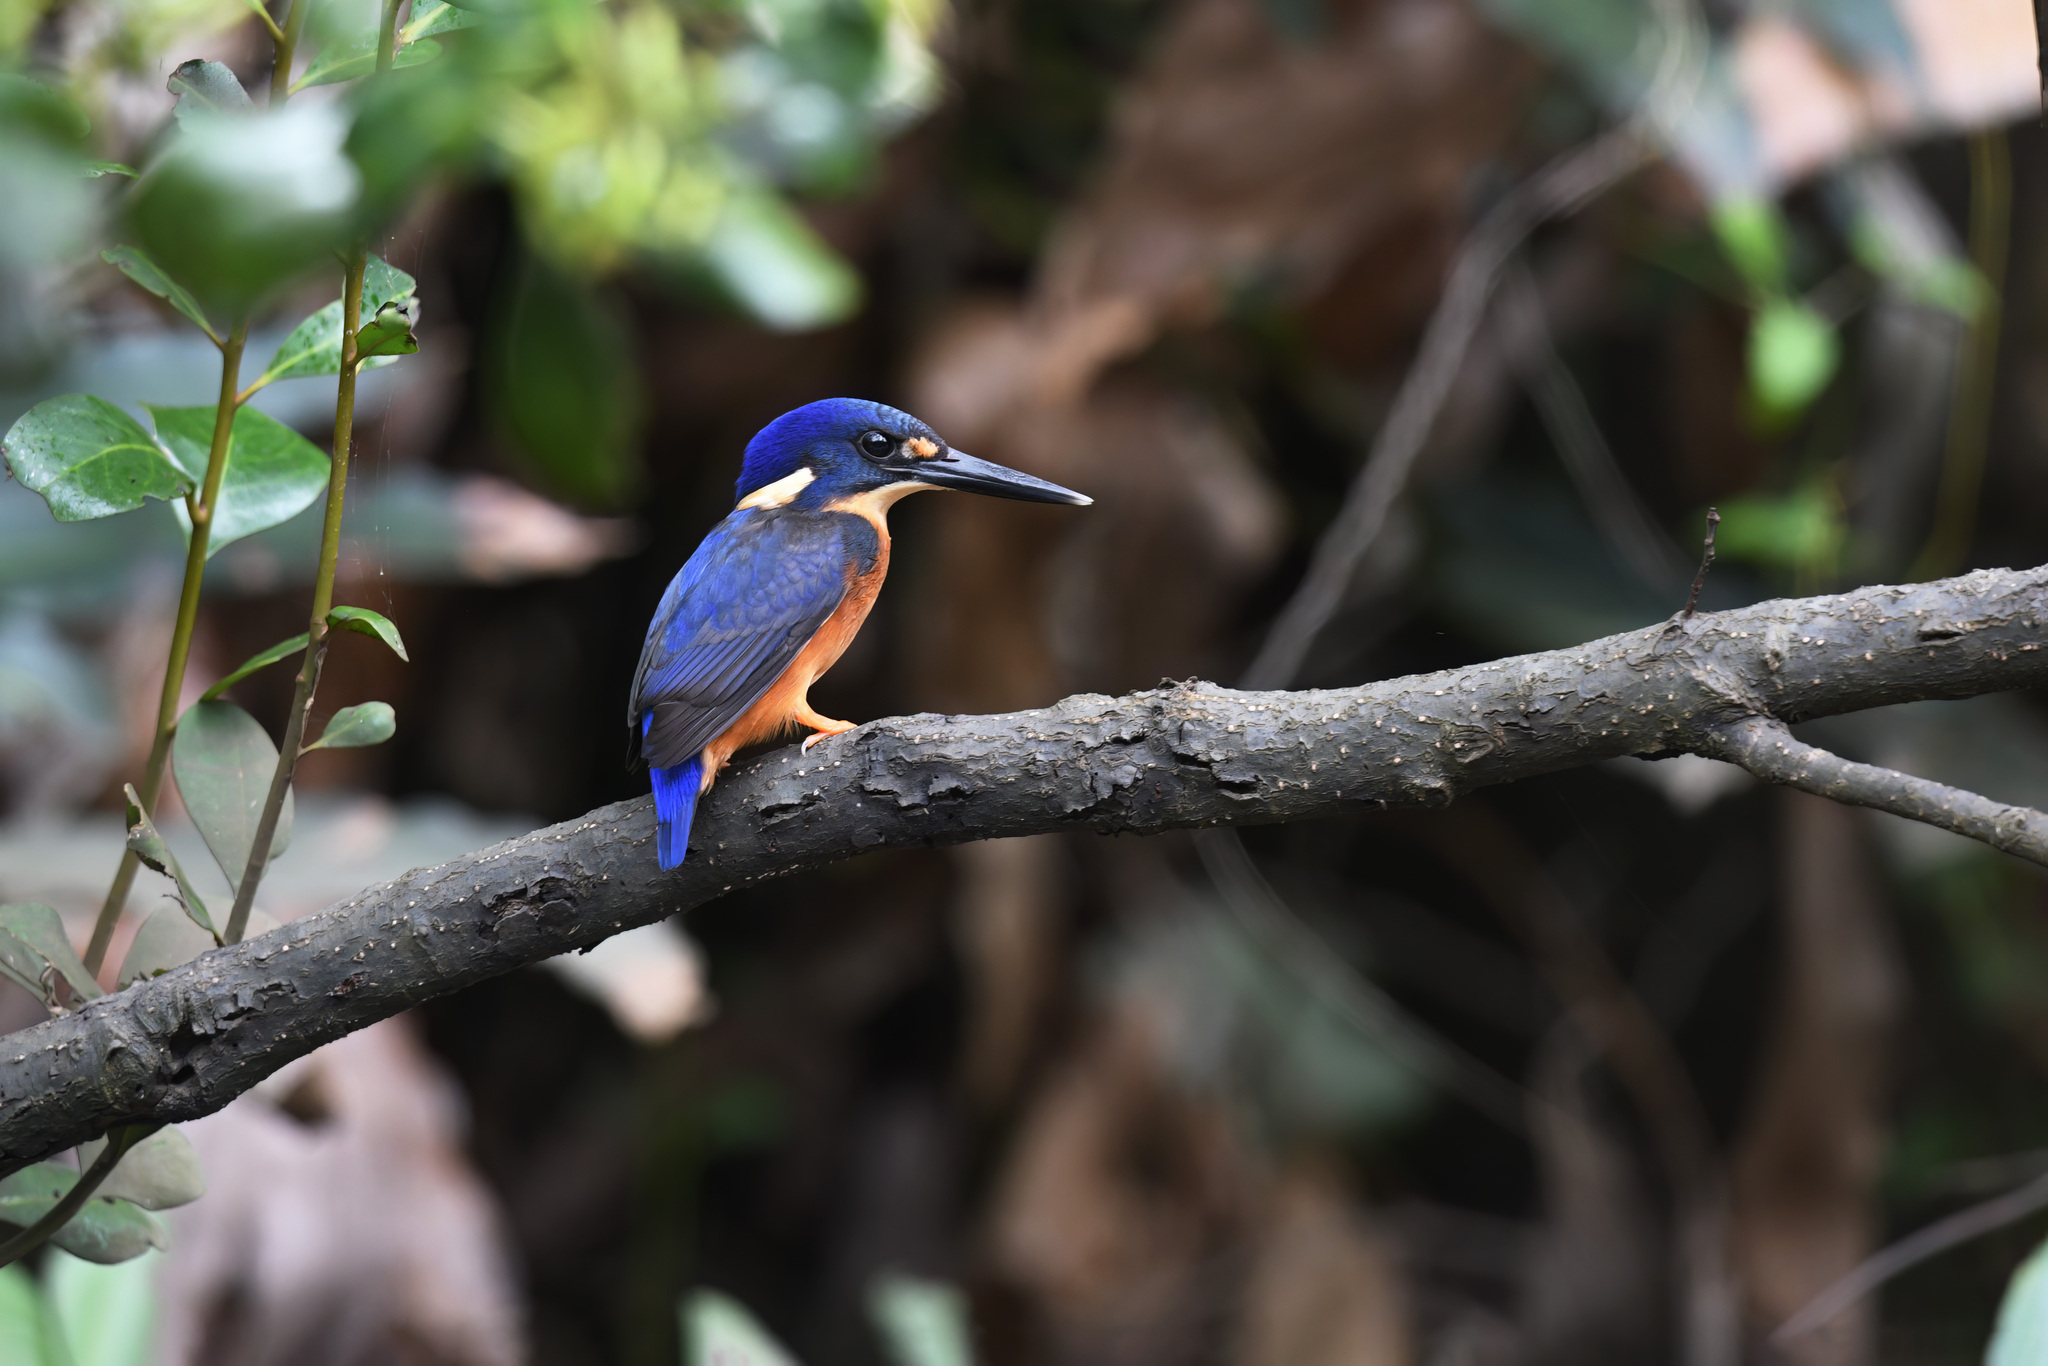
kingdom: Animalia
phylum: Chordata
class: Aves
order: Coraciiformes
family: Alcedinidae
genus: Ceyx
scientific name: Ceyx azureus
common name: Azure kingfisher
